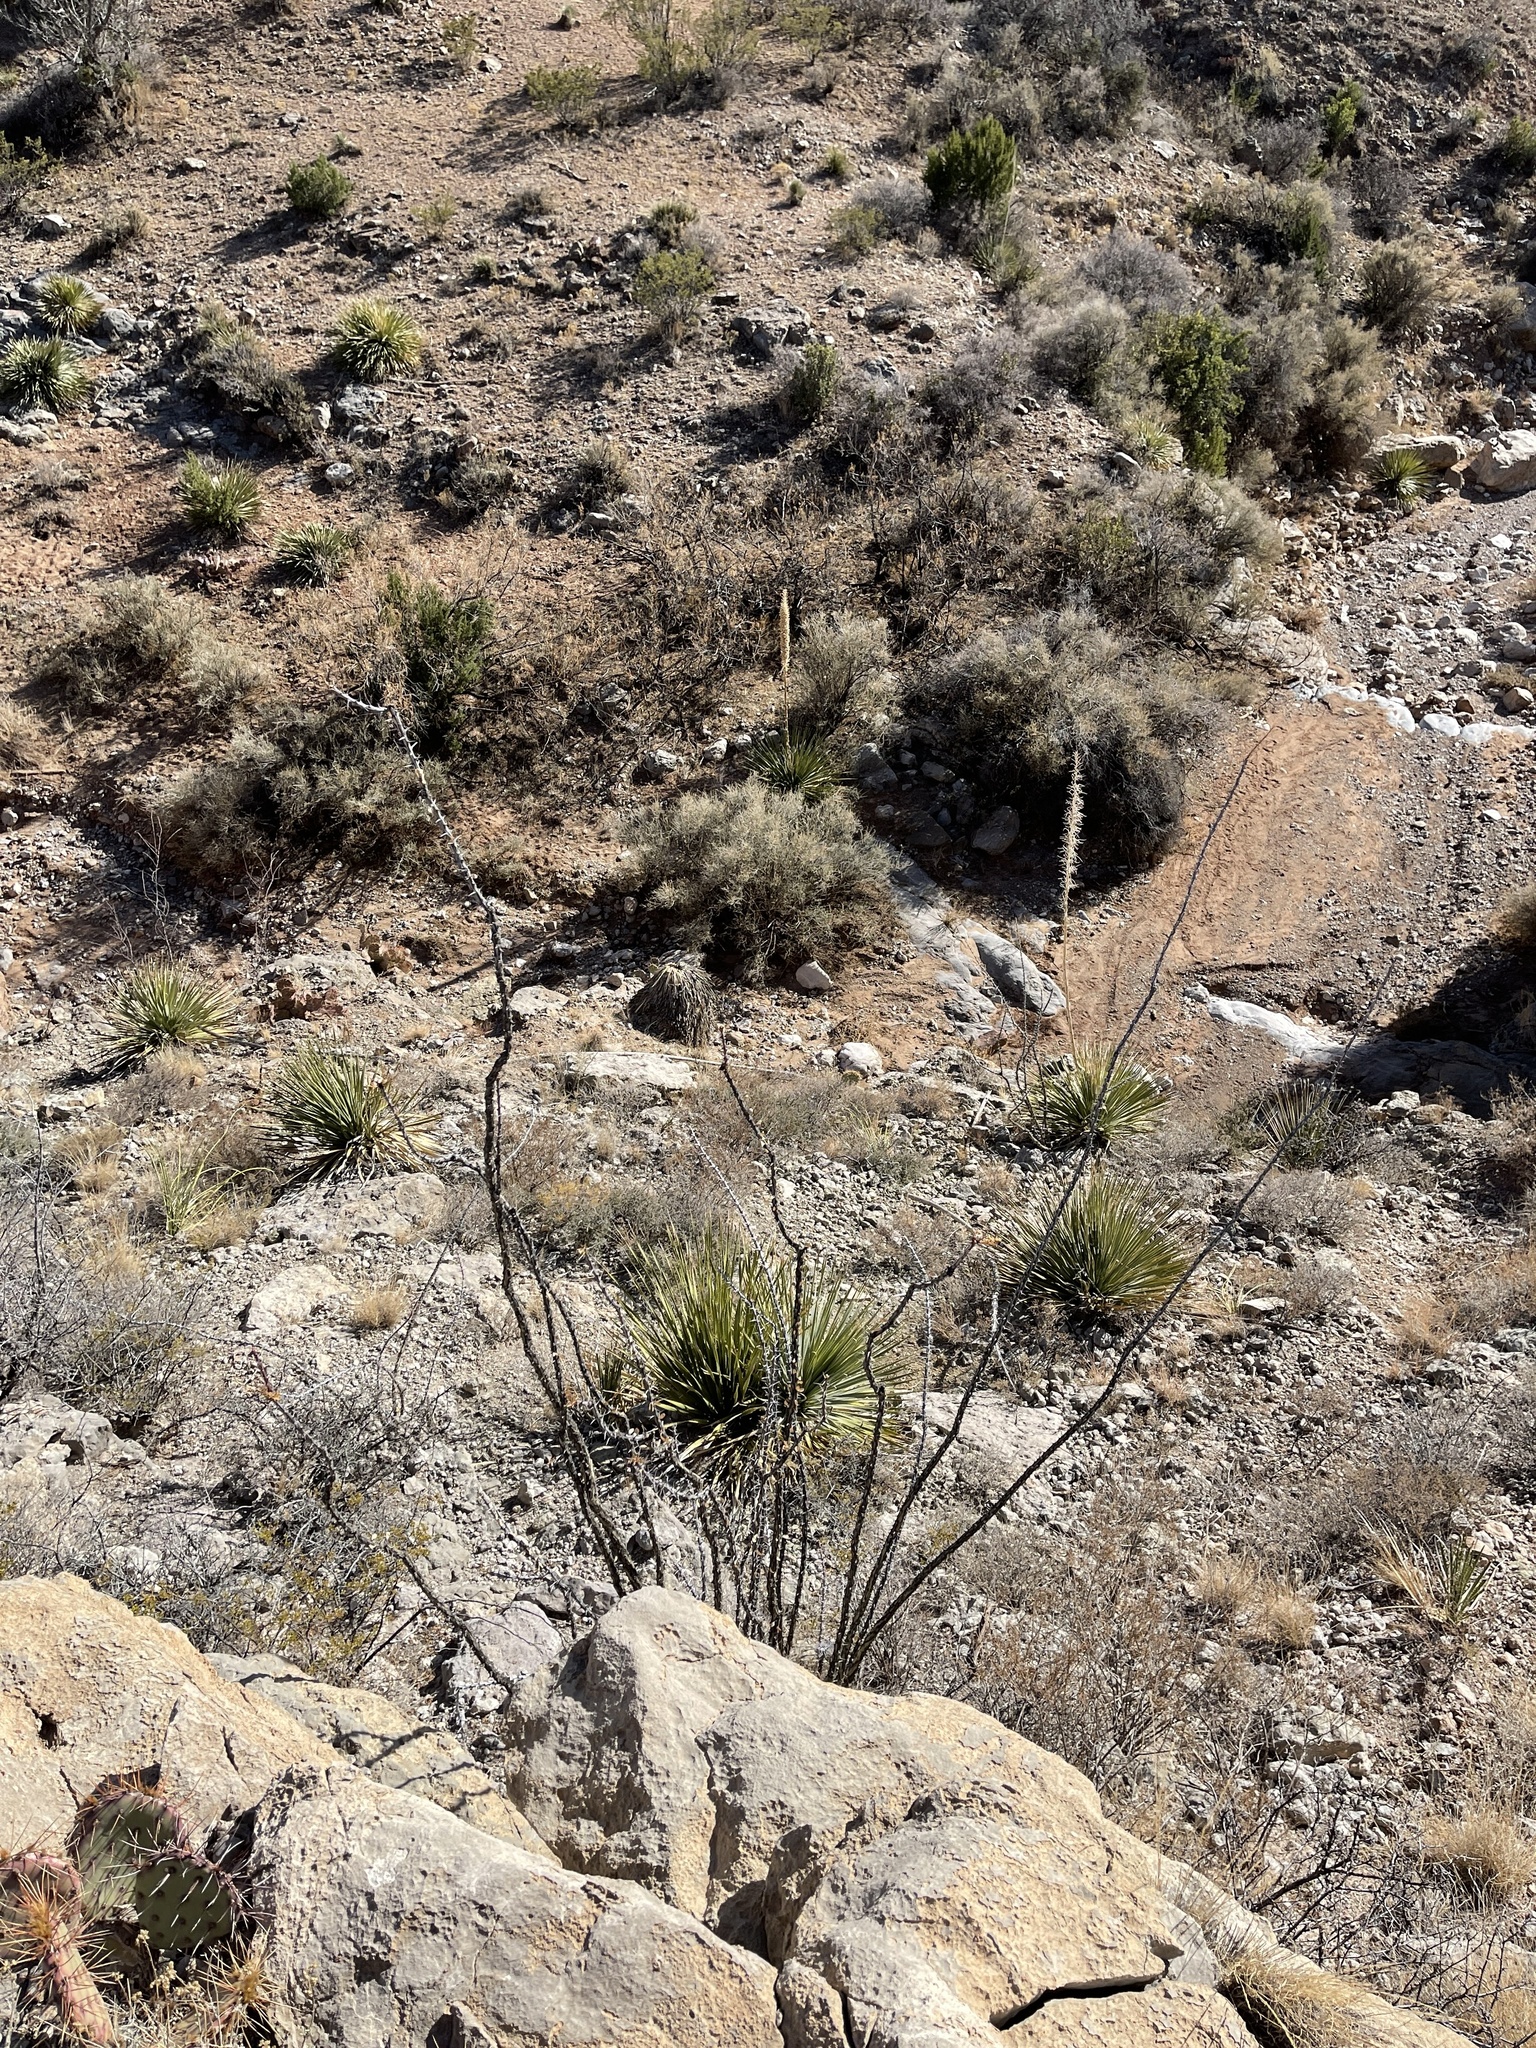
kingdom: Plantae
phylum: Tracheophyta
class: Magnoliopsida
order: Ericales
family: Fouquieriaceae
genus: Fouquieria
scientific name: Fouquieria splendens
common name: Vine-cactus
